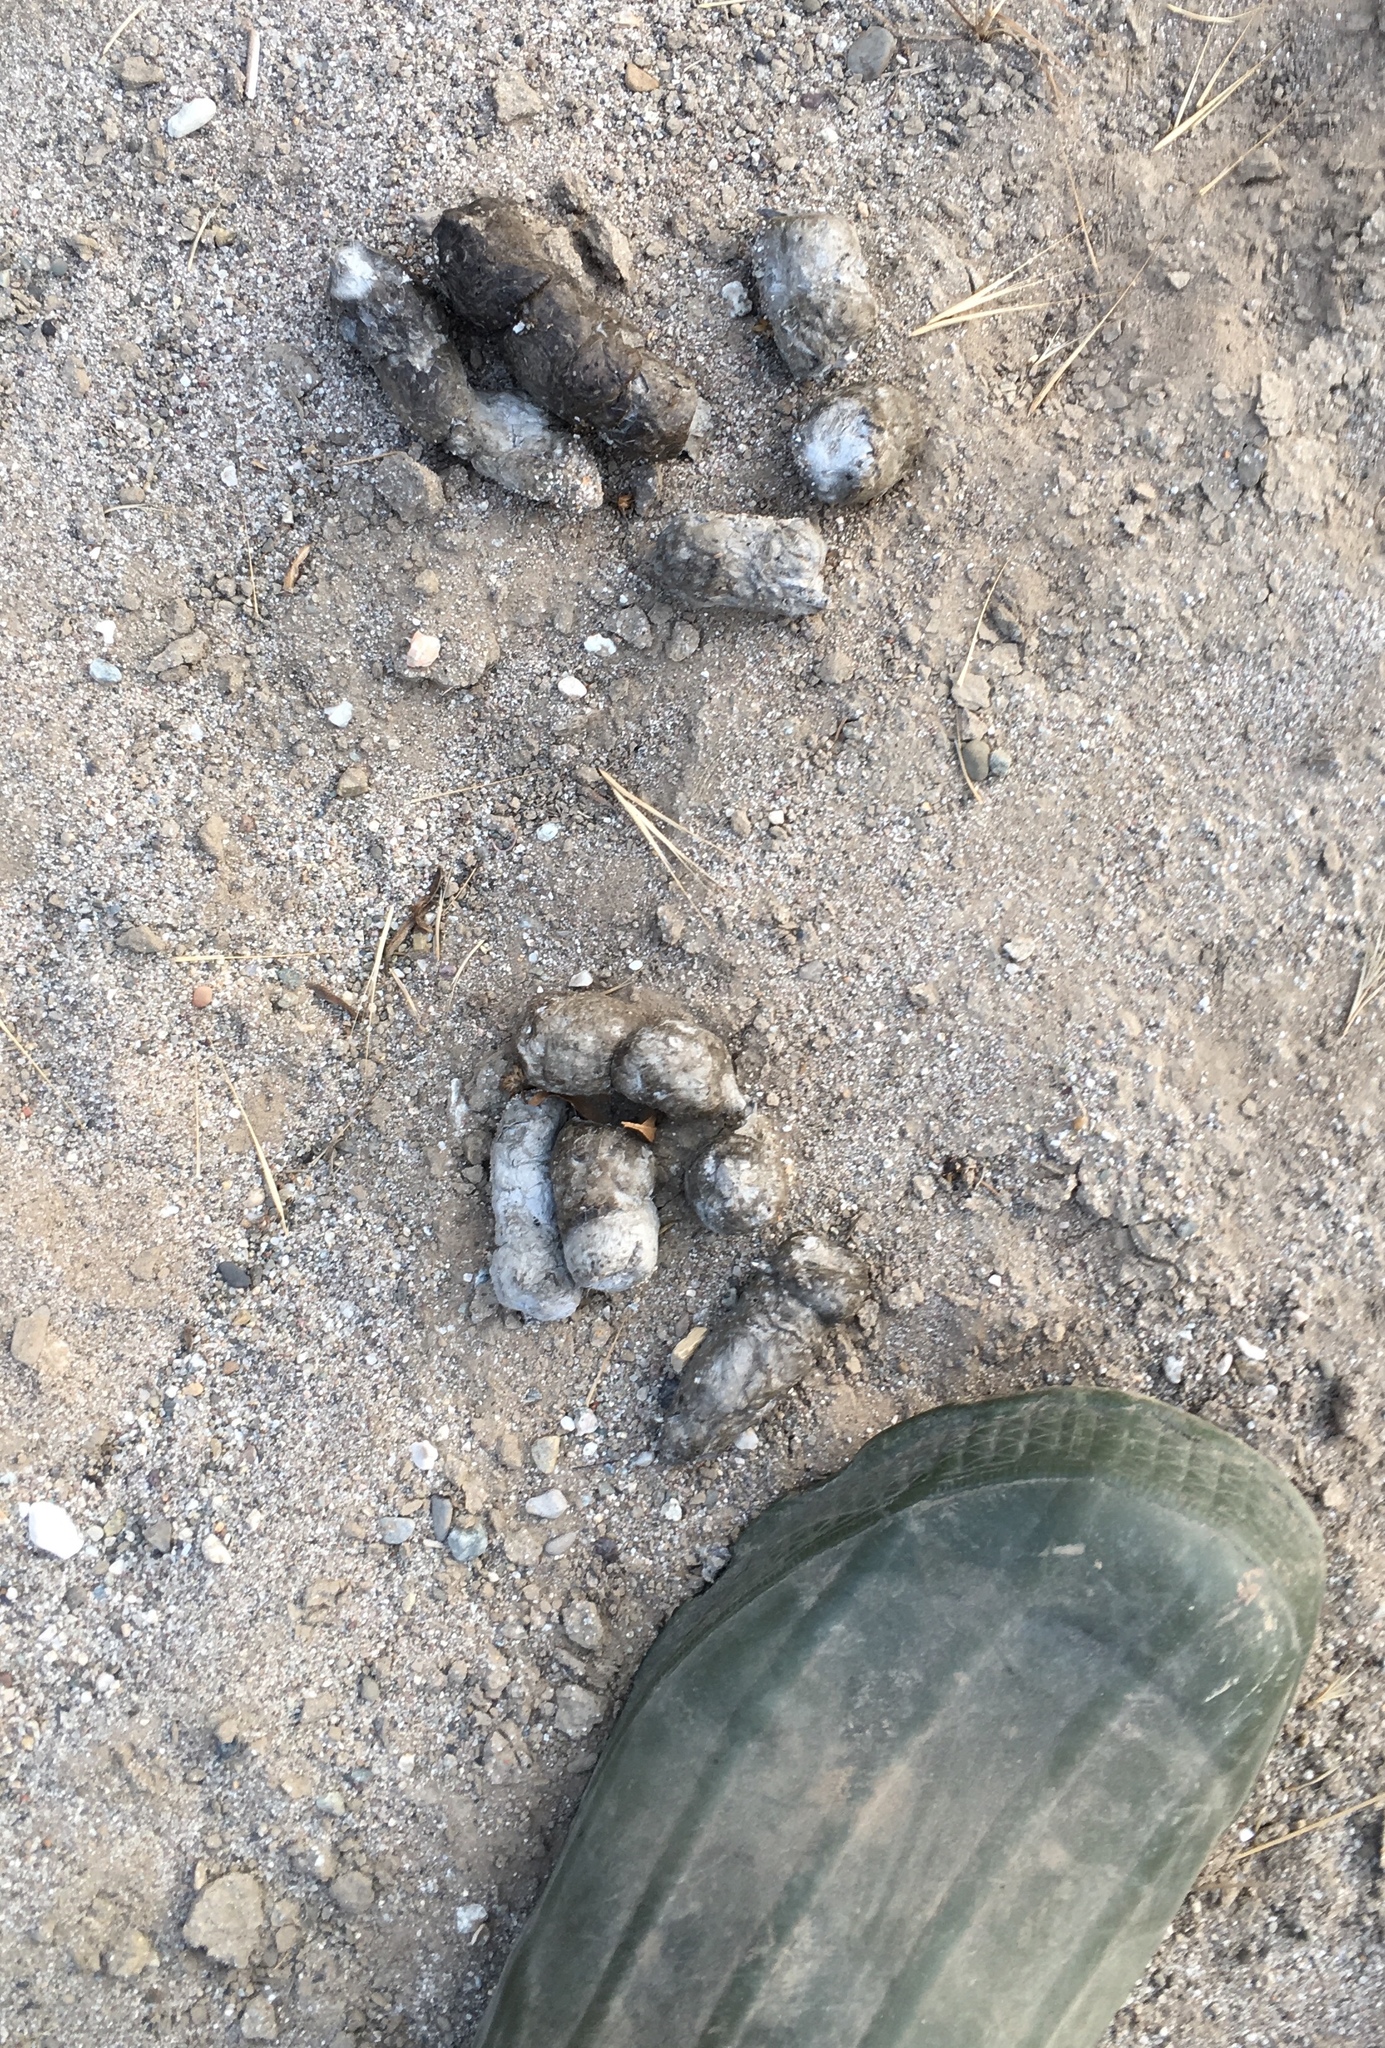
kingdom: Animalia
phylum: Chordata
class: Mammalia
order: Carnivora
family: Felidae
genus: Lynx
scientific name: Lynx rufus
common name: Bobcat
